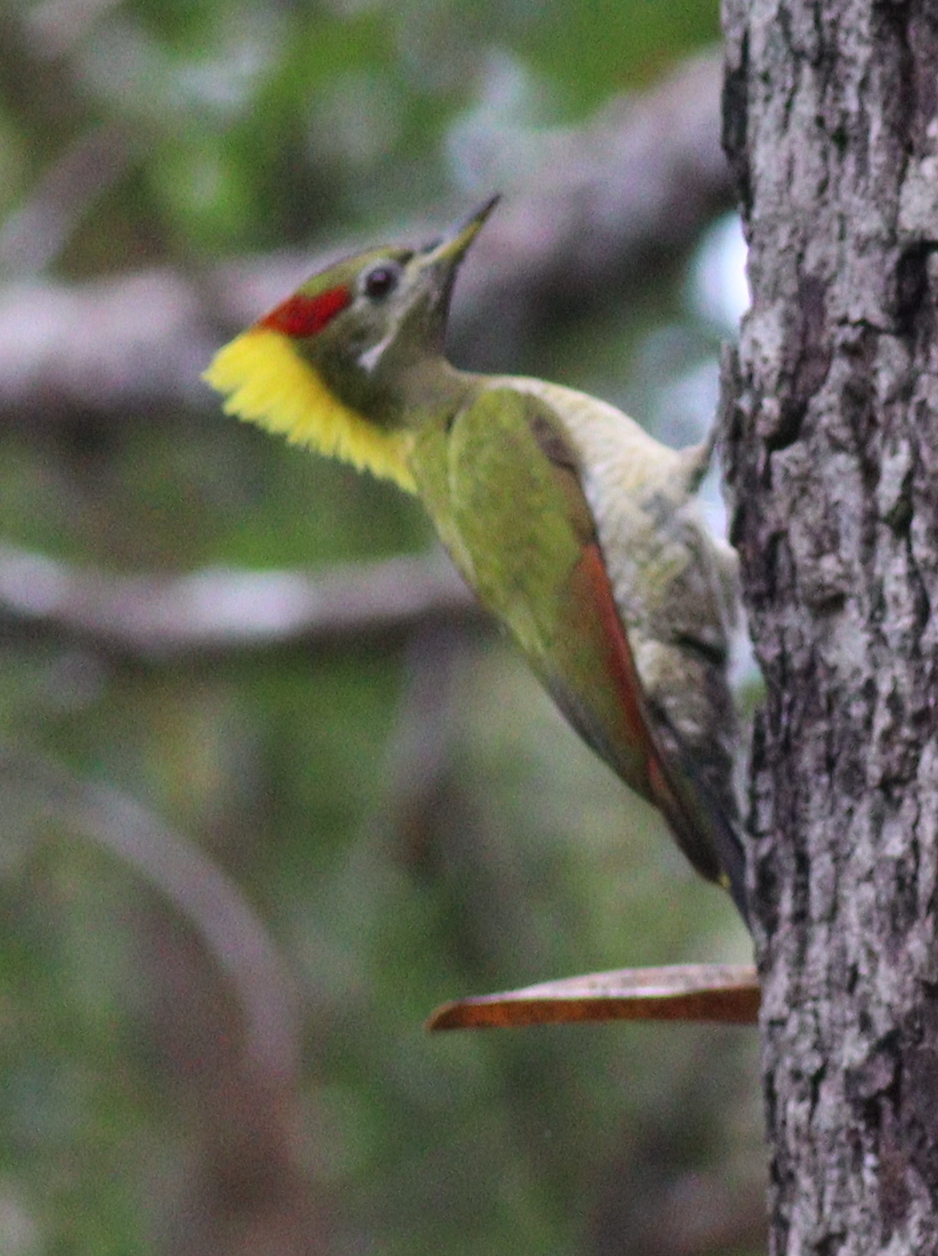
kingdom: Animalia
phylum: Chordata
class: Aves
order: Piciformes
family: Picidae
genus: Picus
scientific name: Picus chlorolophus
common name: Lesser yellownape
